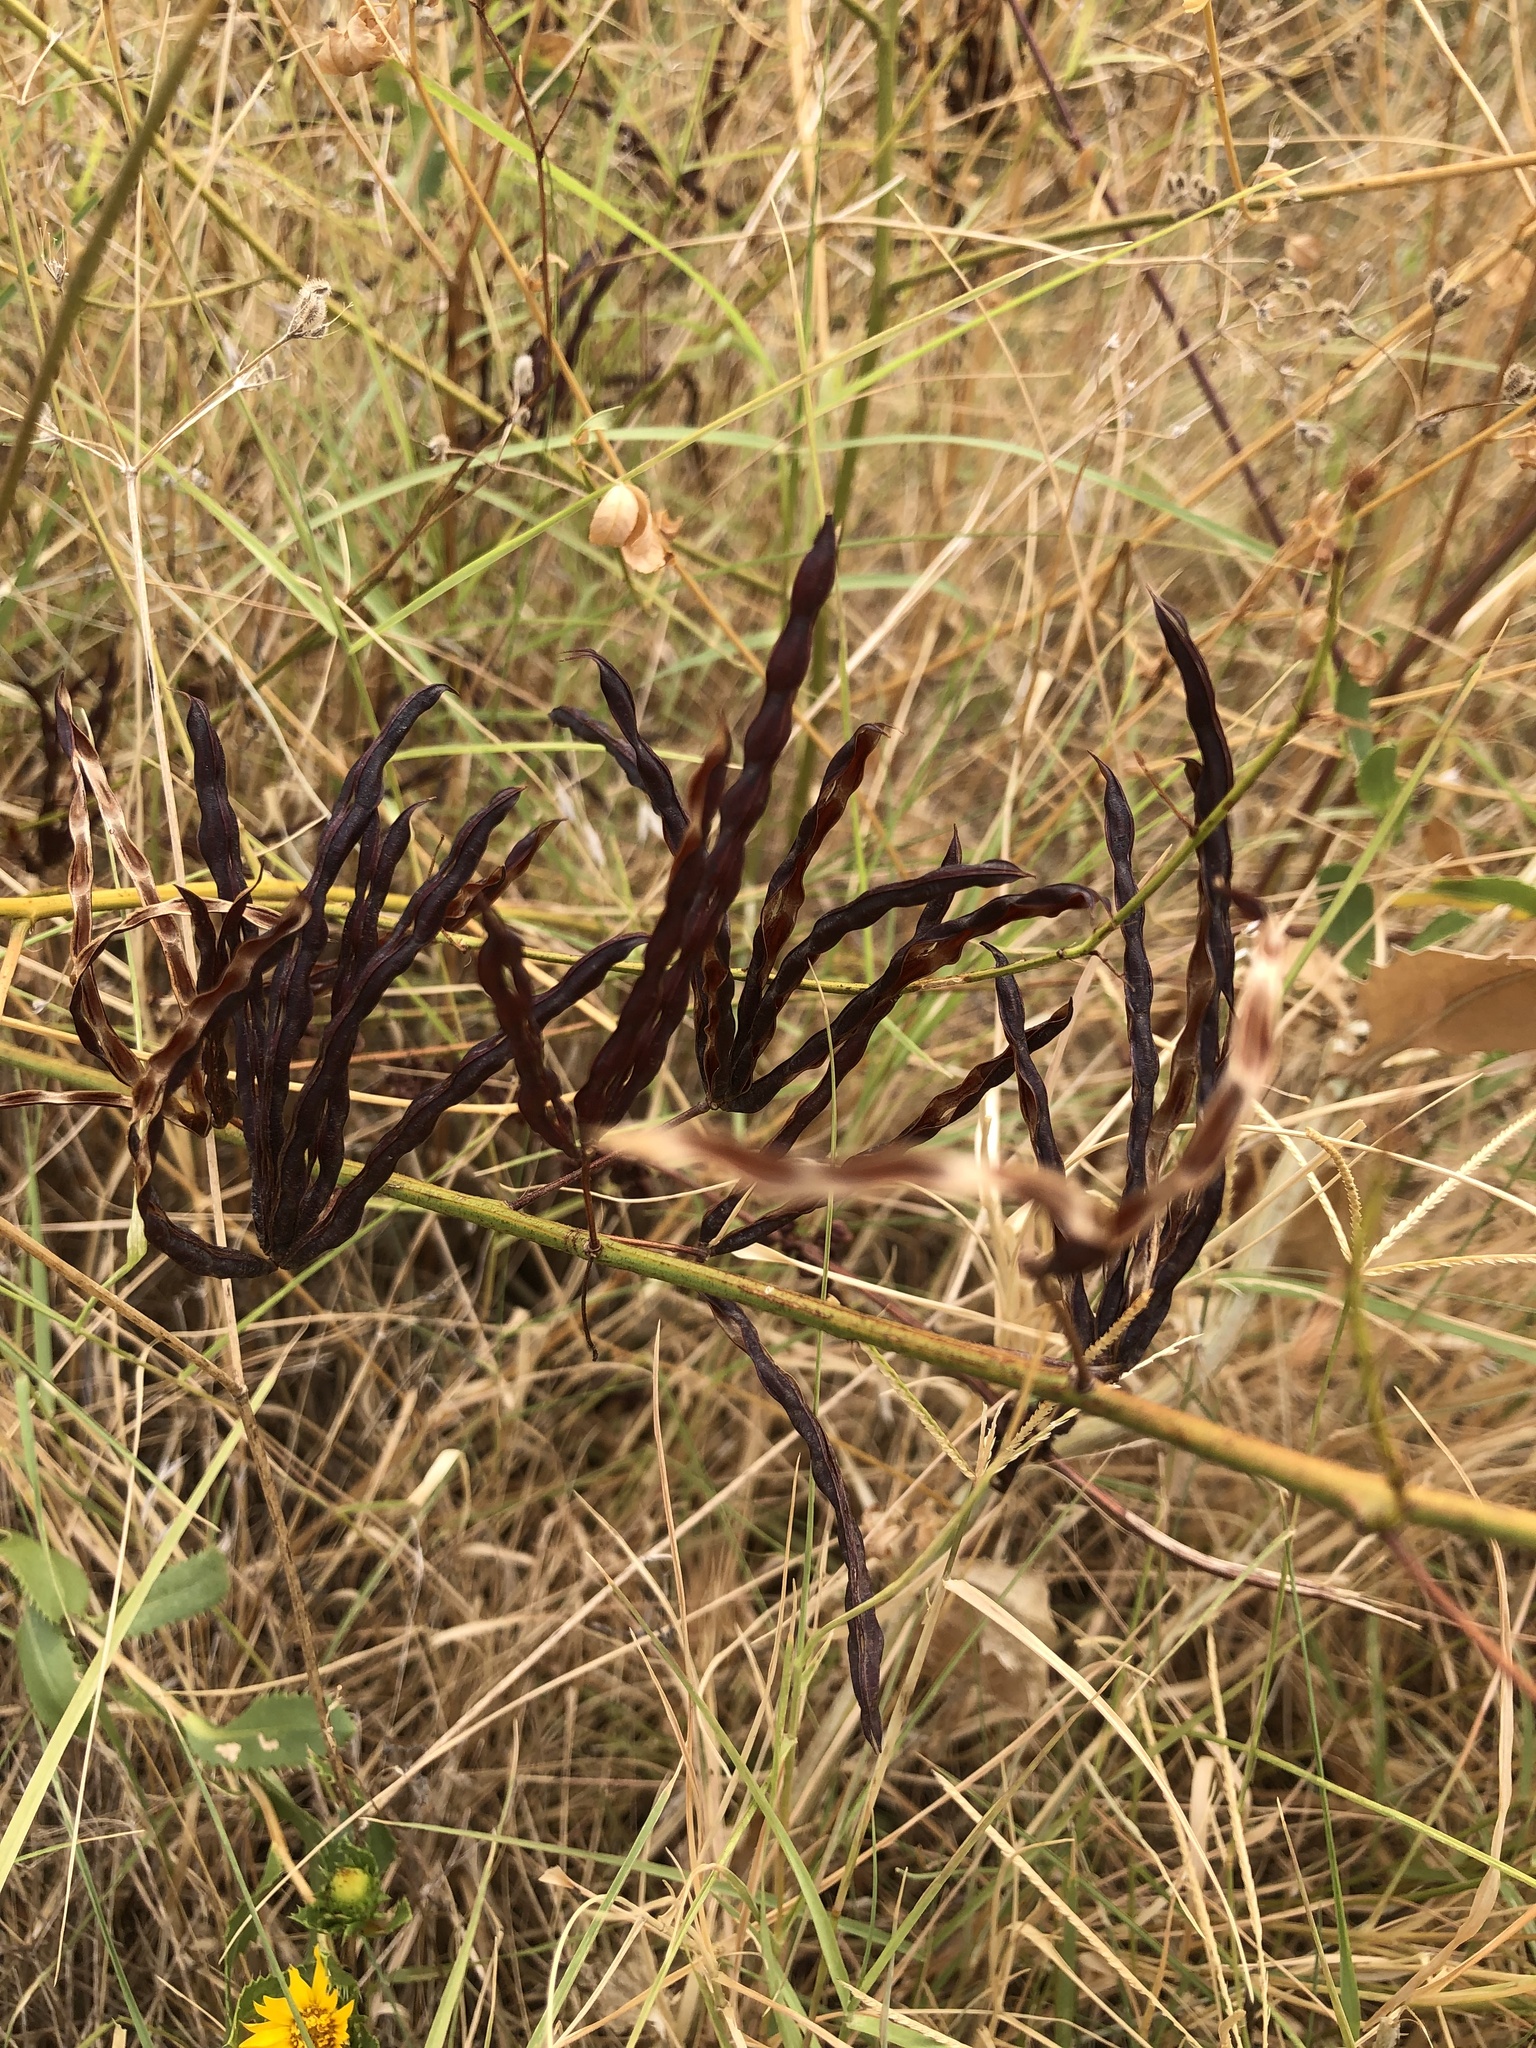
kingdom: Plantae
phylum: Tracheophyta
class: Magnoliopsida
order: Fabales
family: Fabaceae
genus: Desmanthus
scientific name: Desmanthus leptolobus
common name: Prairie-mimosa
